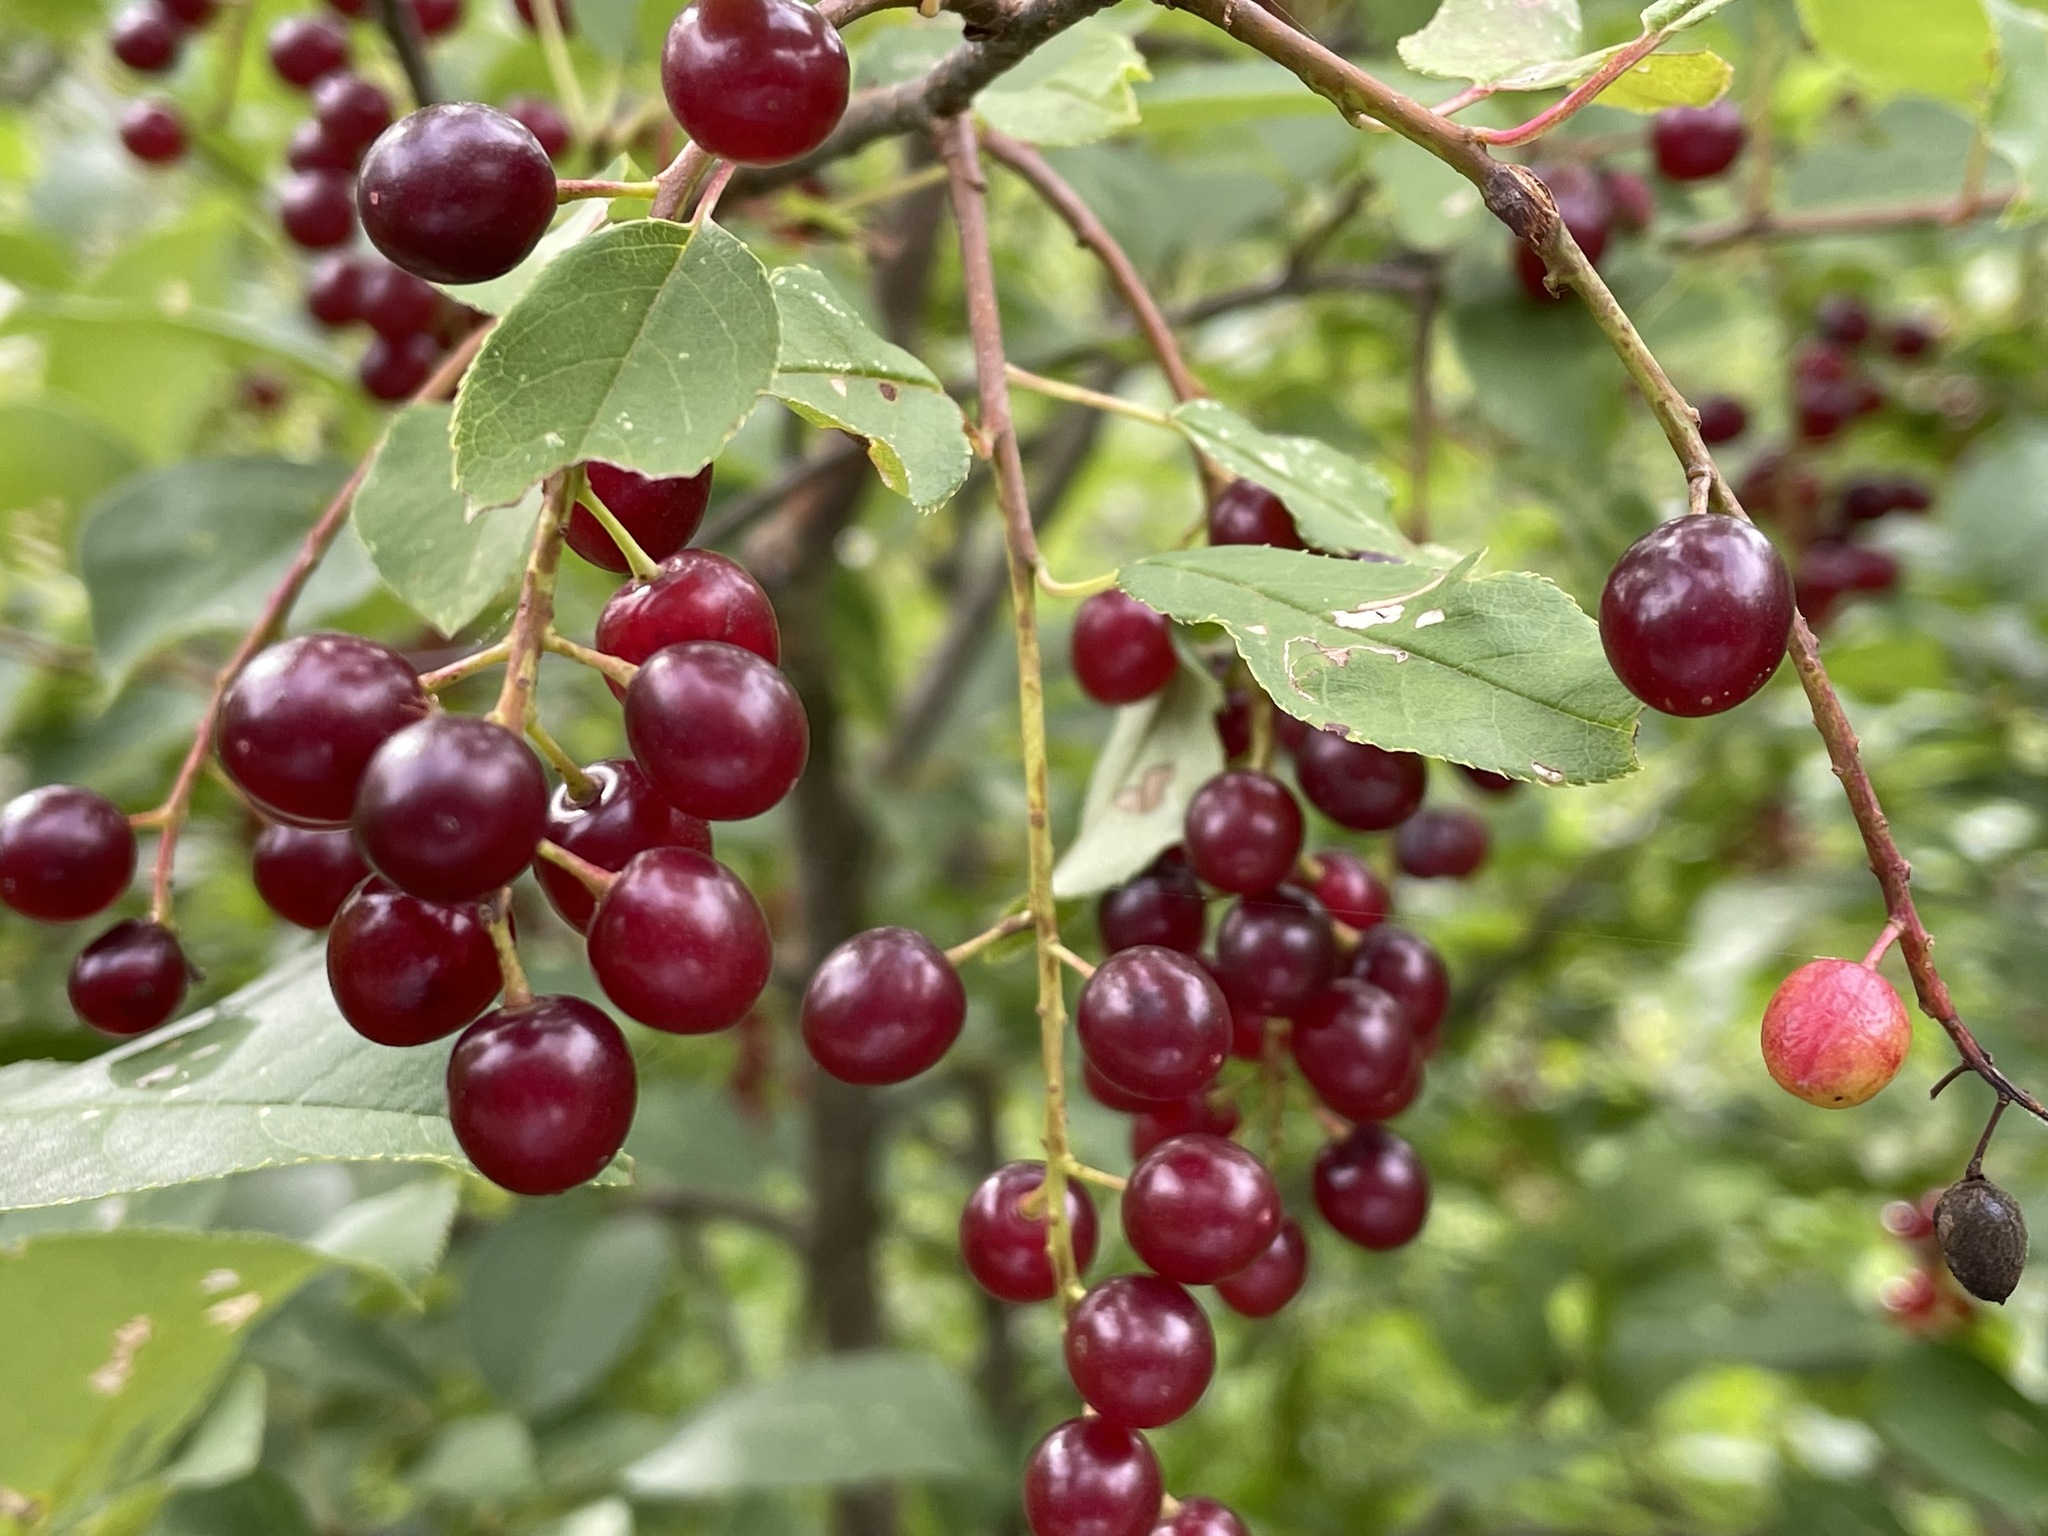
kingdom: Plantae
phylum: Tracheophyta
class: Magnoliopsida
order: Rosales
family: Rosaceae
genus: Prunus
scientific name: Prunus virginiana
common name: Chokecherry
